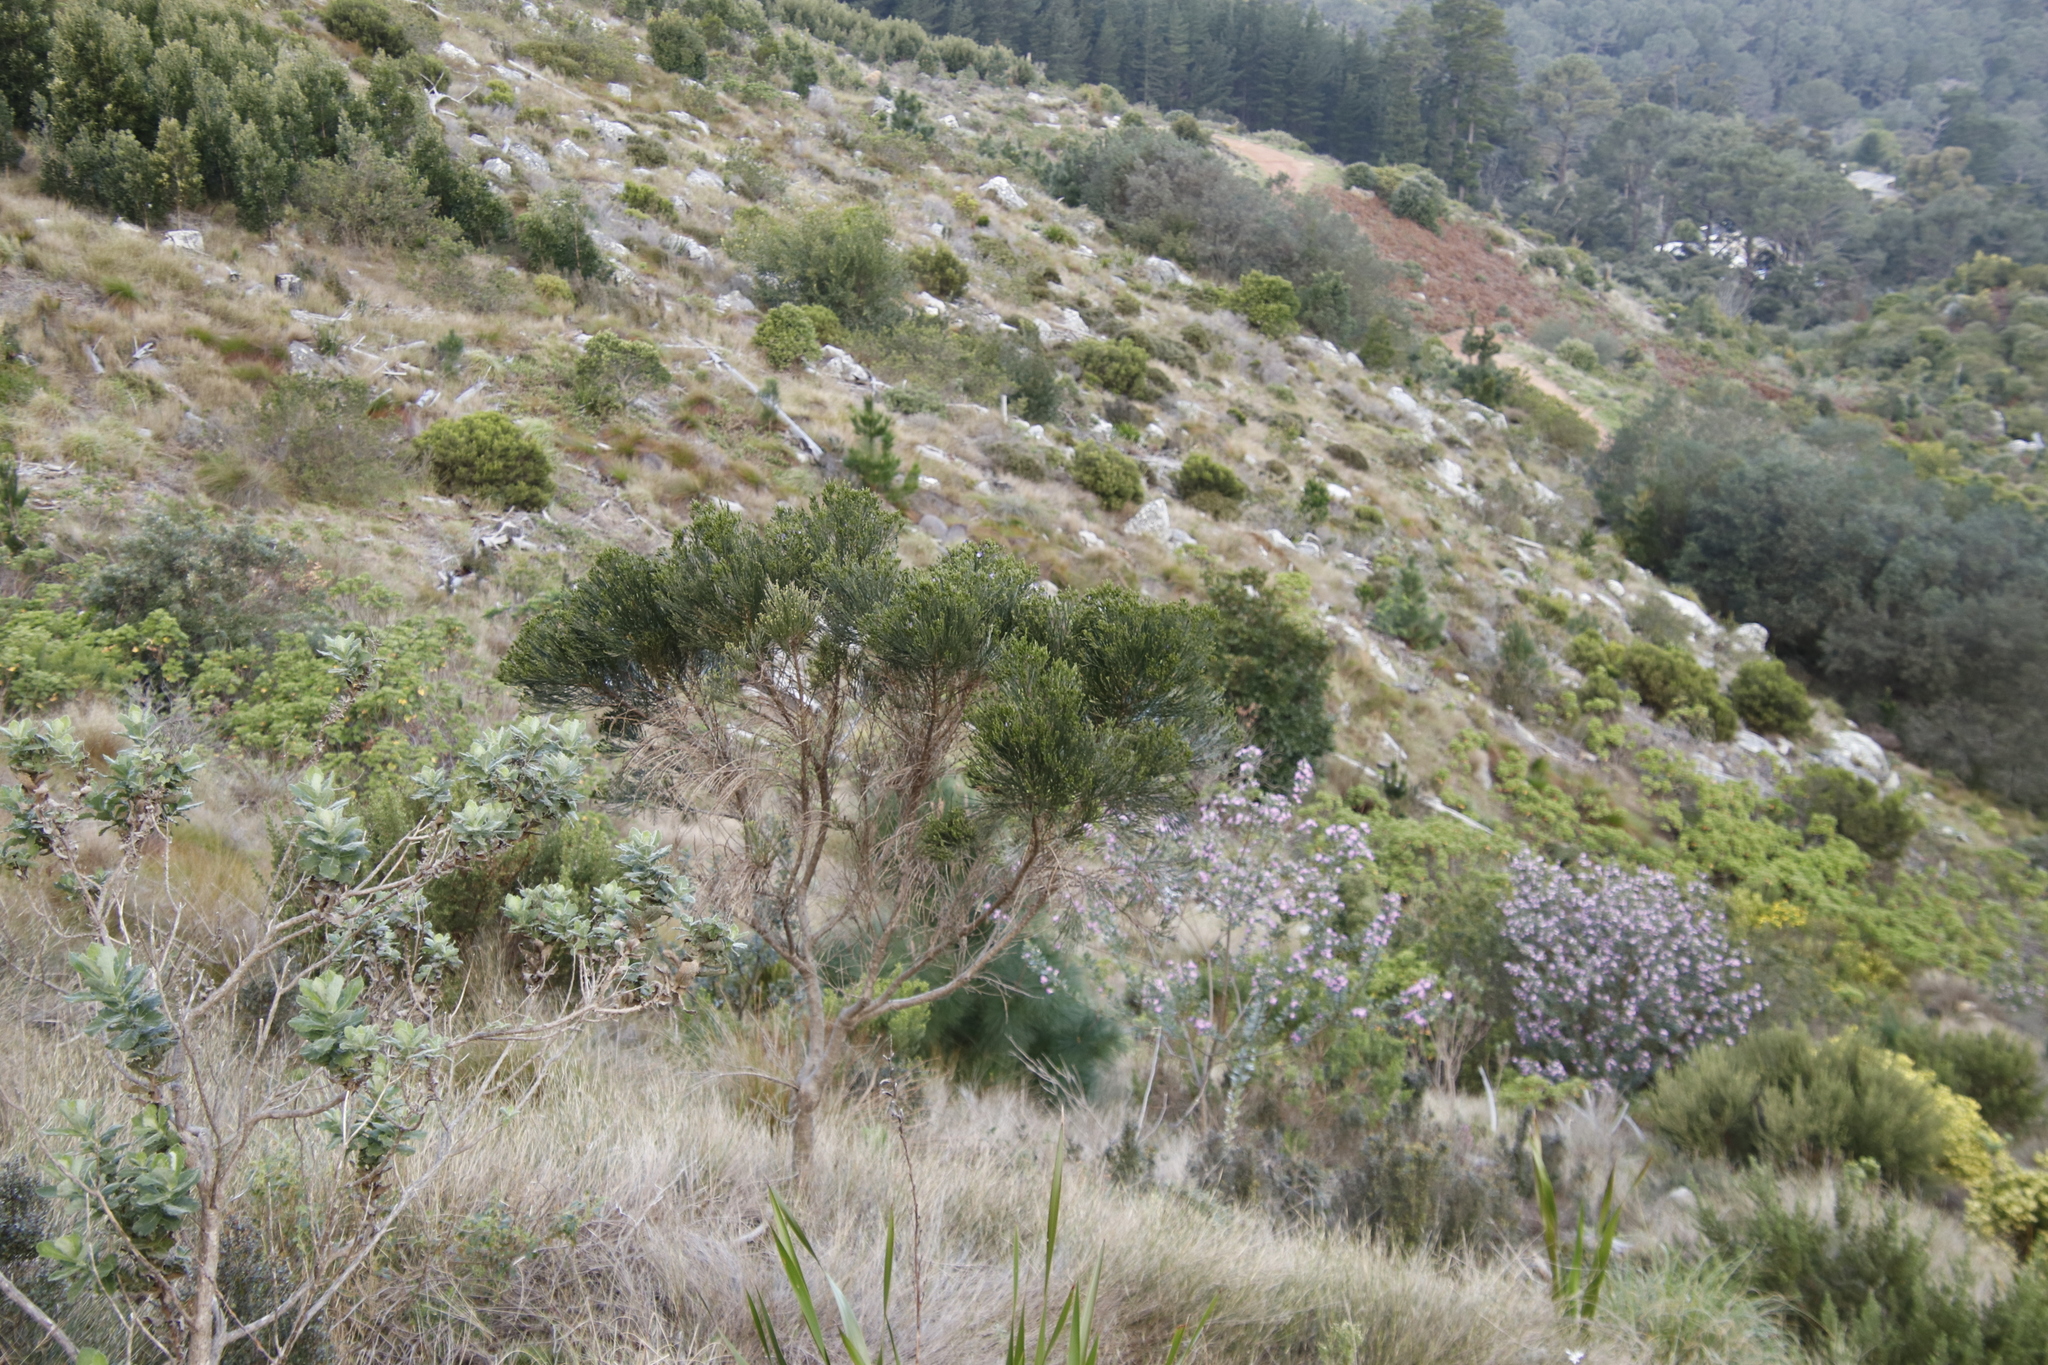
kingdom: Plantae
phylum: Tracheophyta
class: Magnoliopsida
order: Fabales
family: Fabaceae
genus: Psoralea
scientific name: Psoralea congesta
